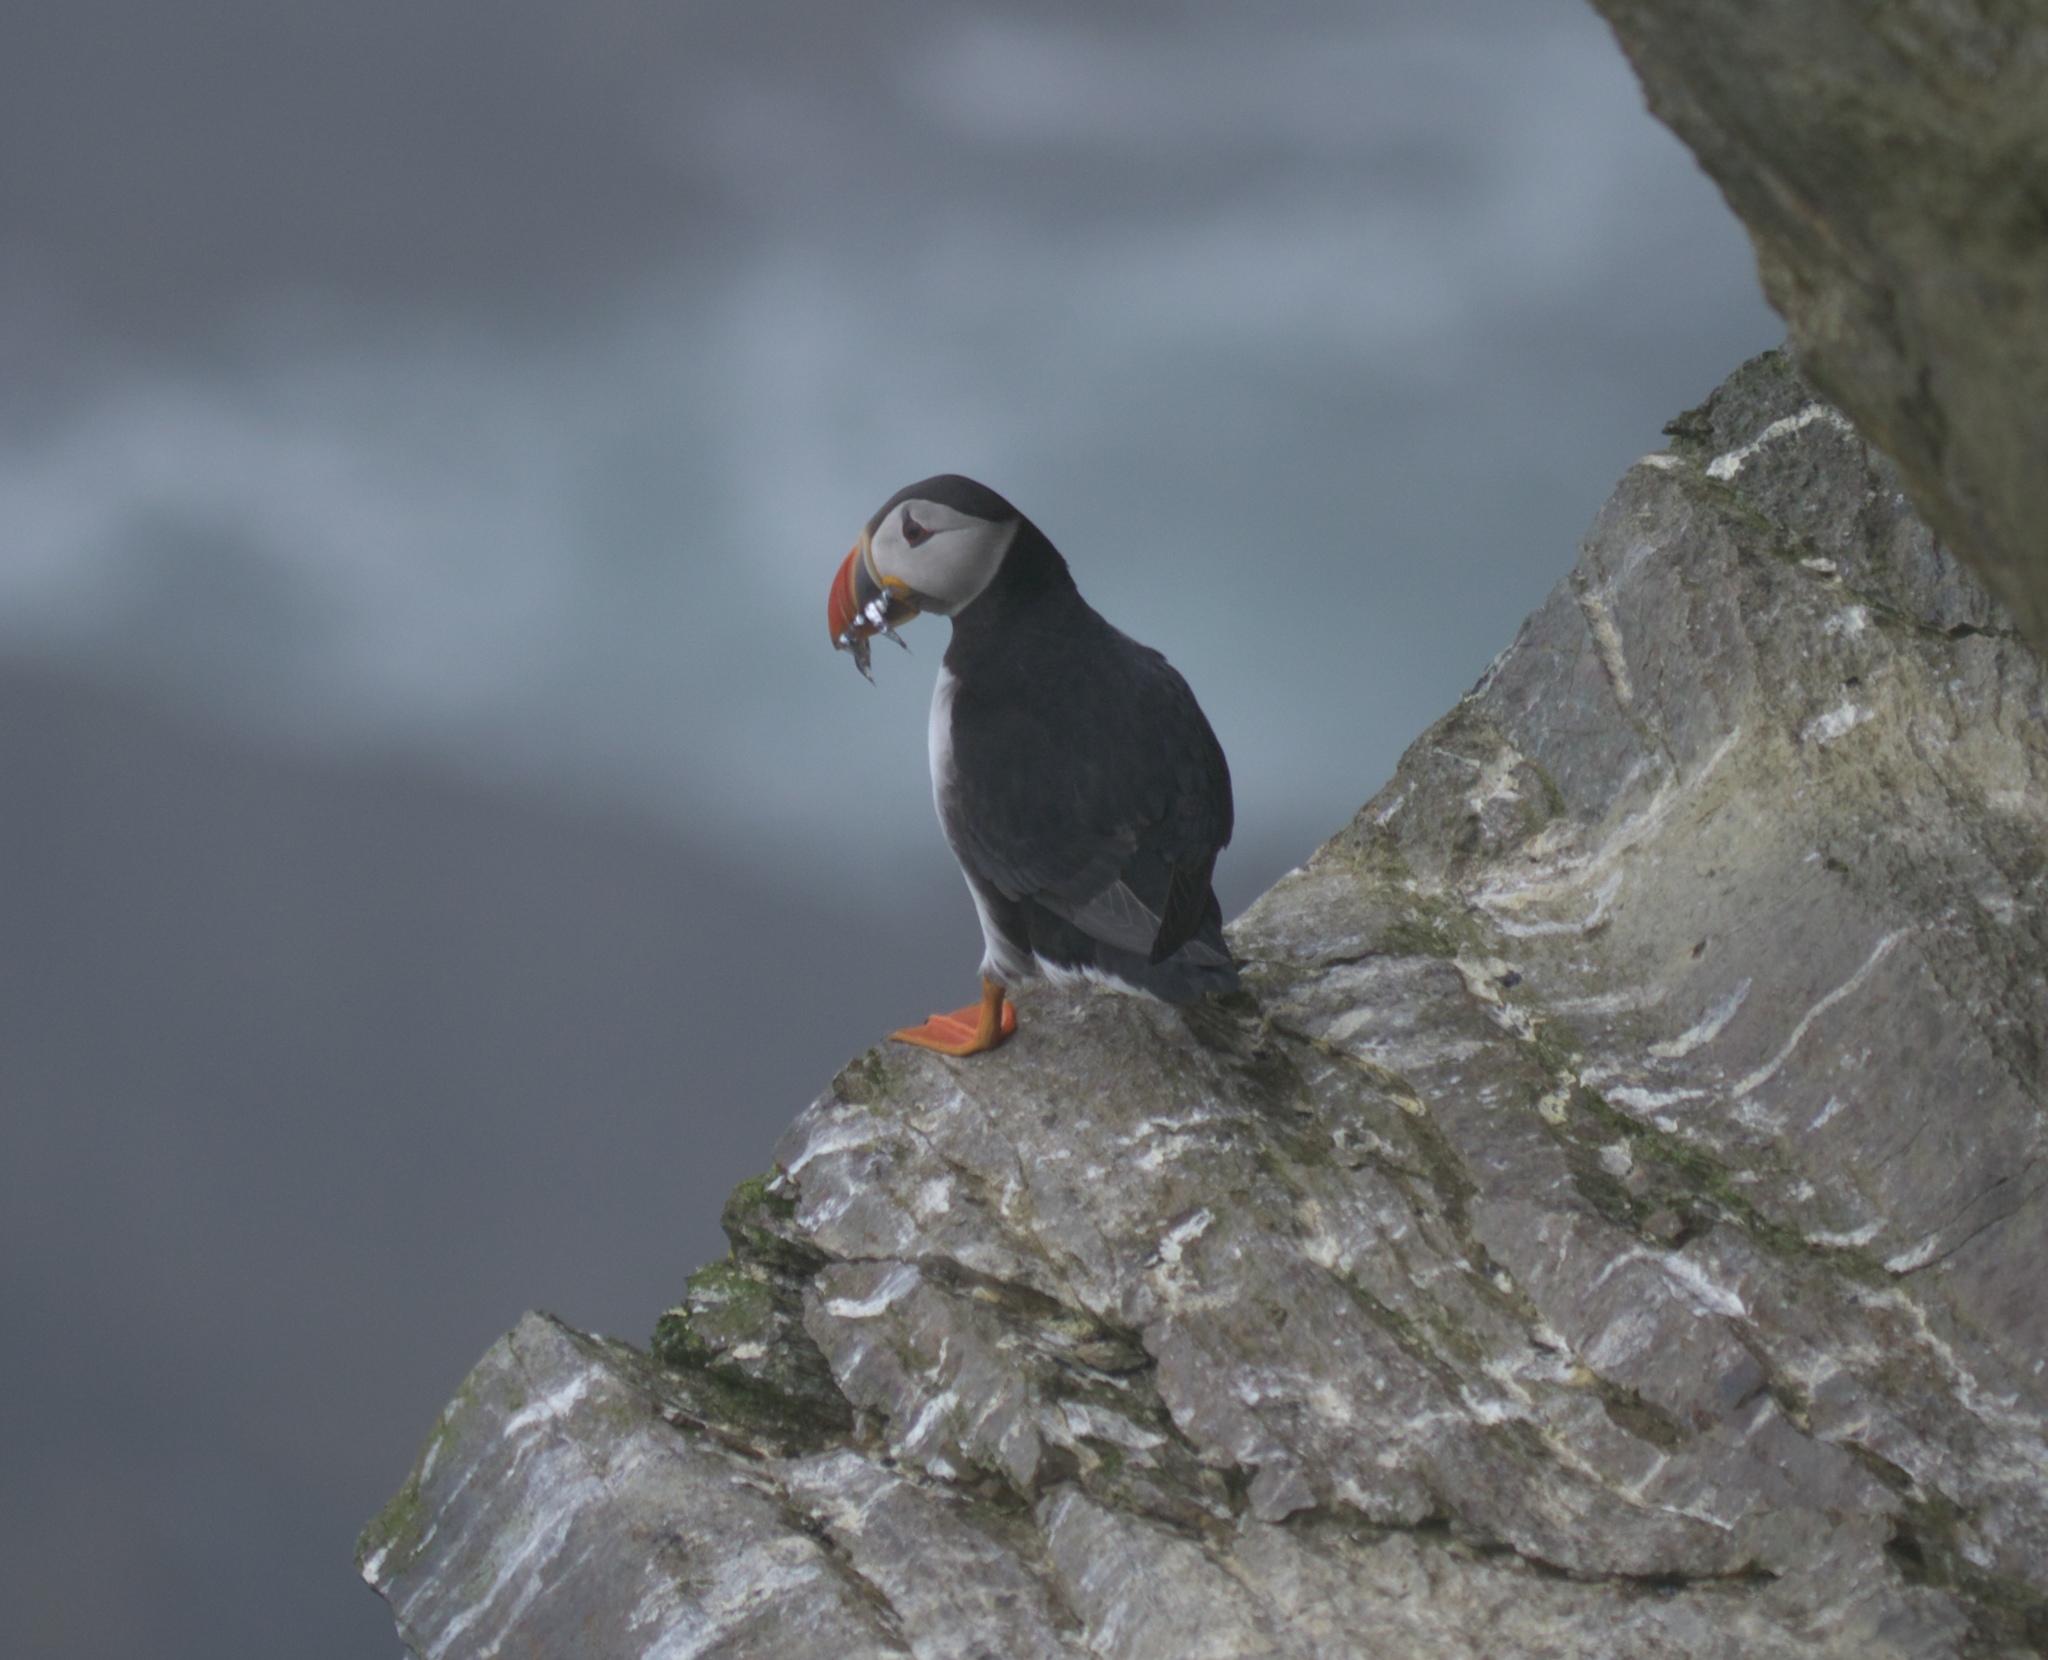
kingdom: Animalia
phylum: Chordata
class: Aves
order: Charadriiformes
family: Alcidae
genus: Fratercula
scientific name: Fratercula arctica
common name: Atlantic puffin
